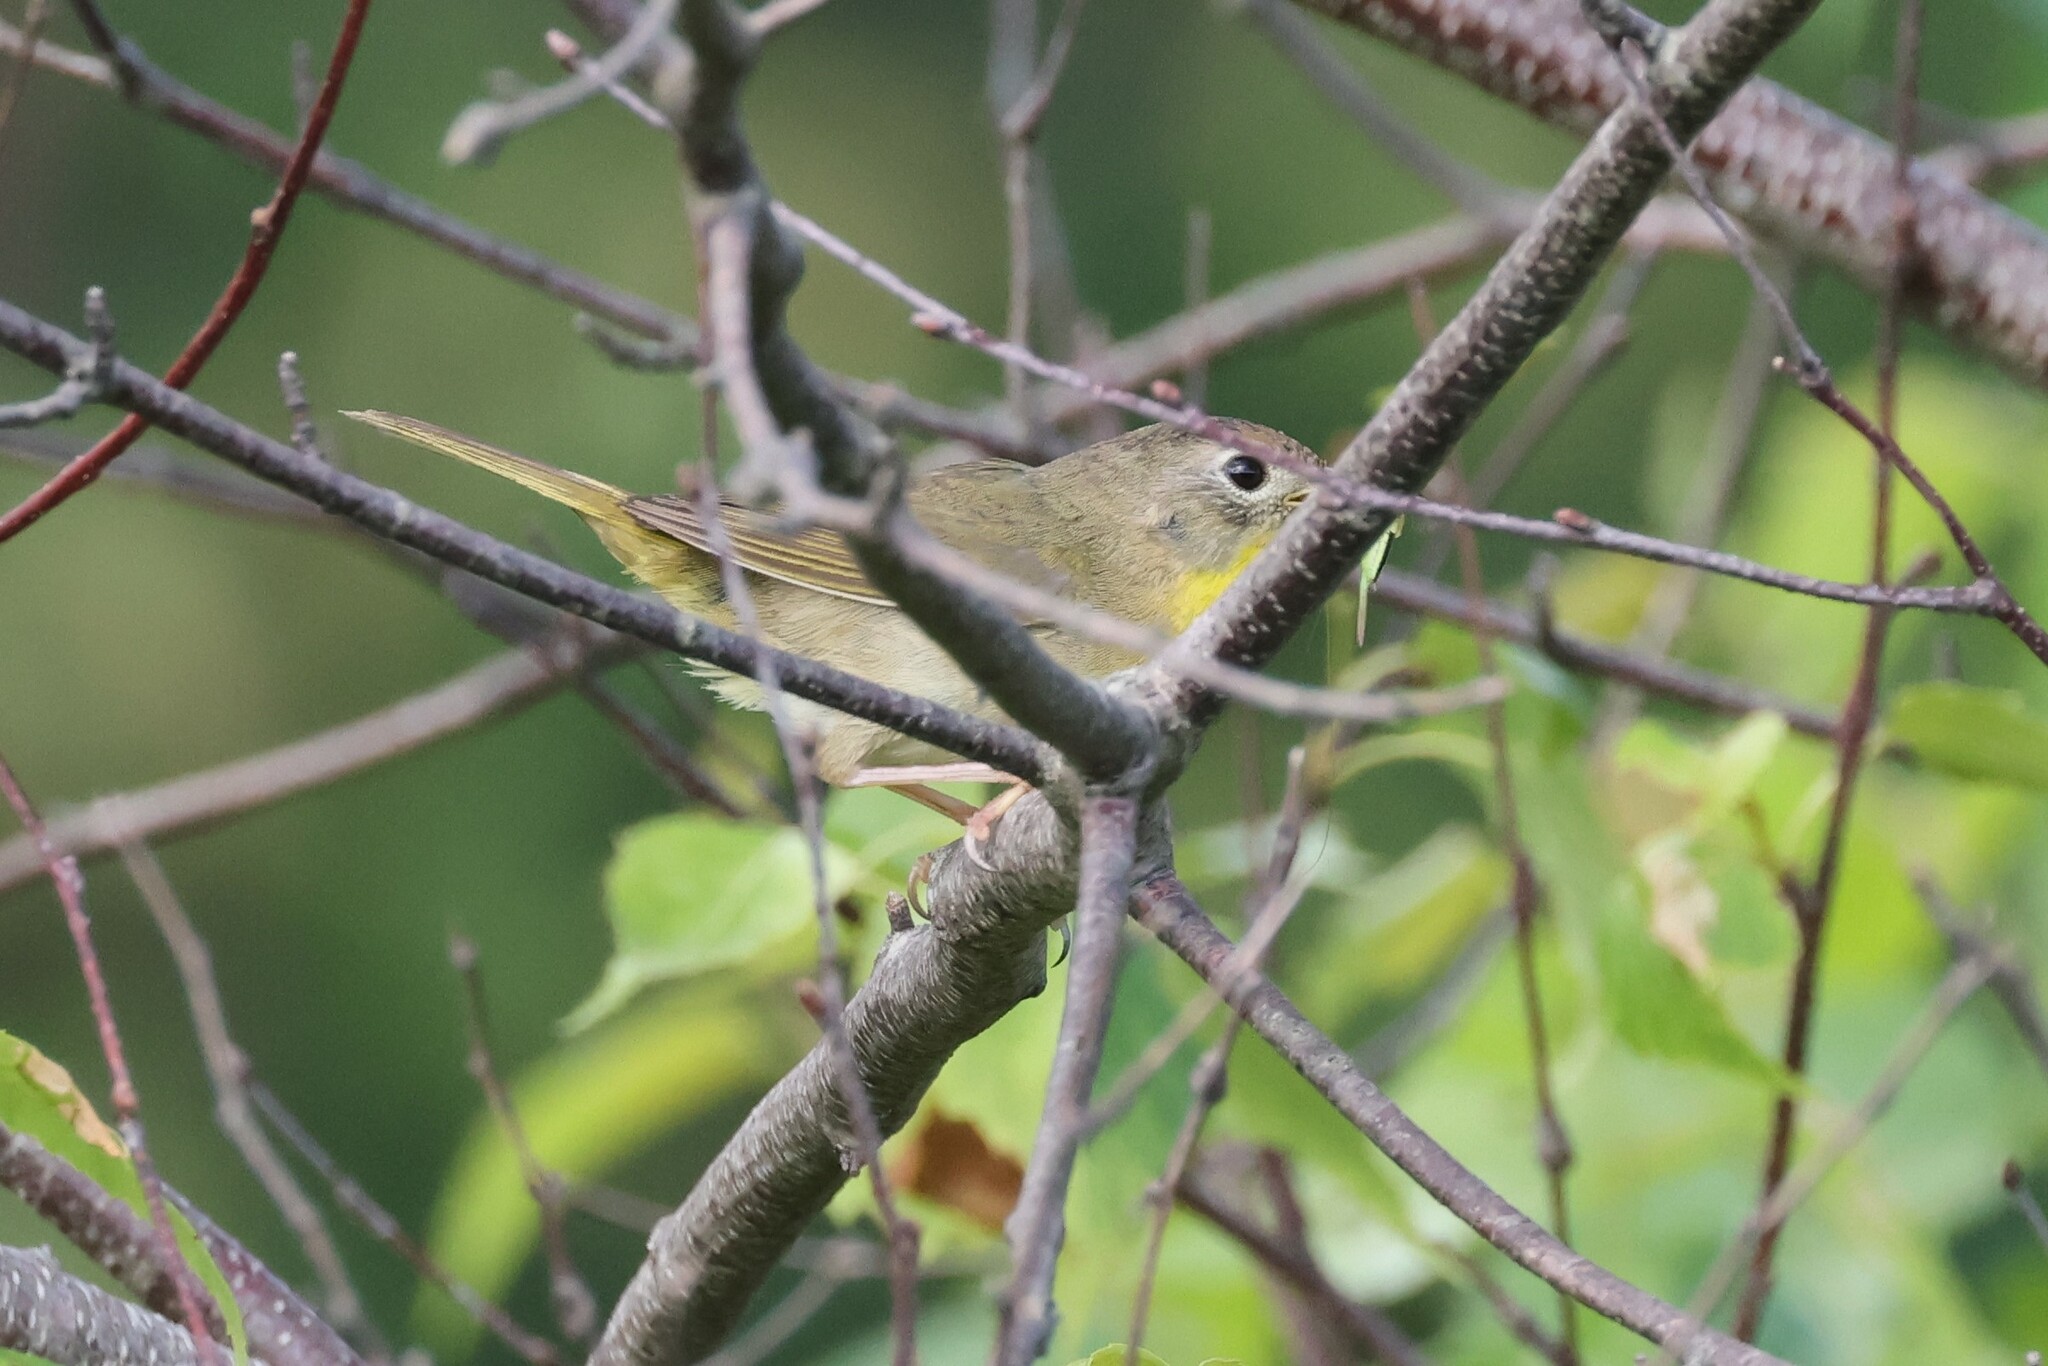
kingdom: Animalia
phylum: Chordata
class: Aves
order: Passeriformes
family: Parulidae
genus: Geothlypis
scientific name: Geothlypis trichas
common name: Common yellowthroat
